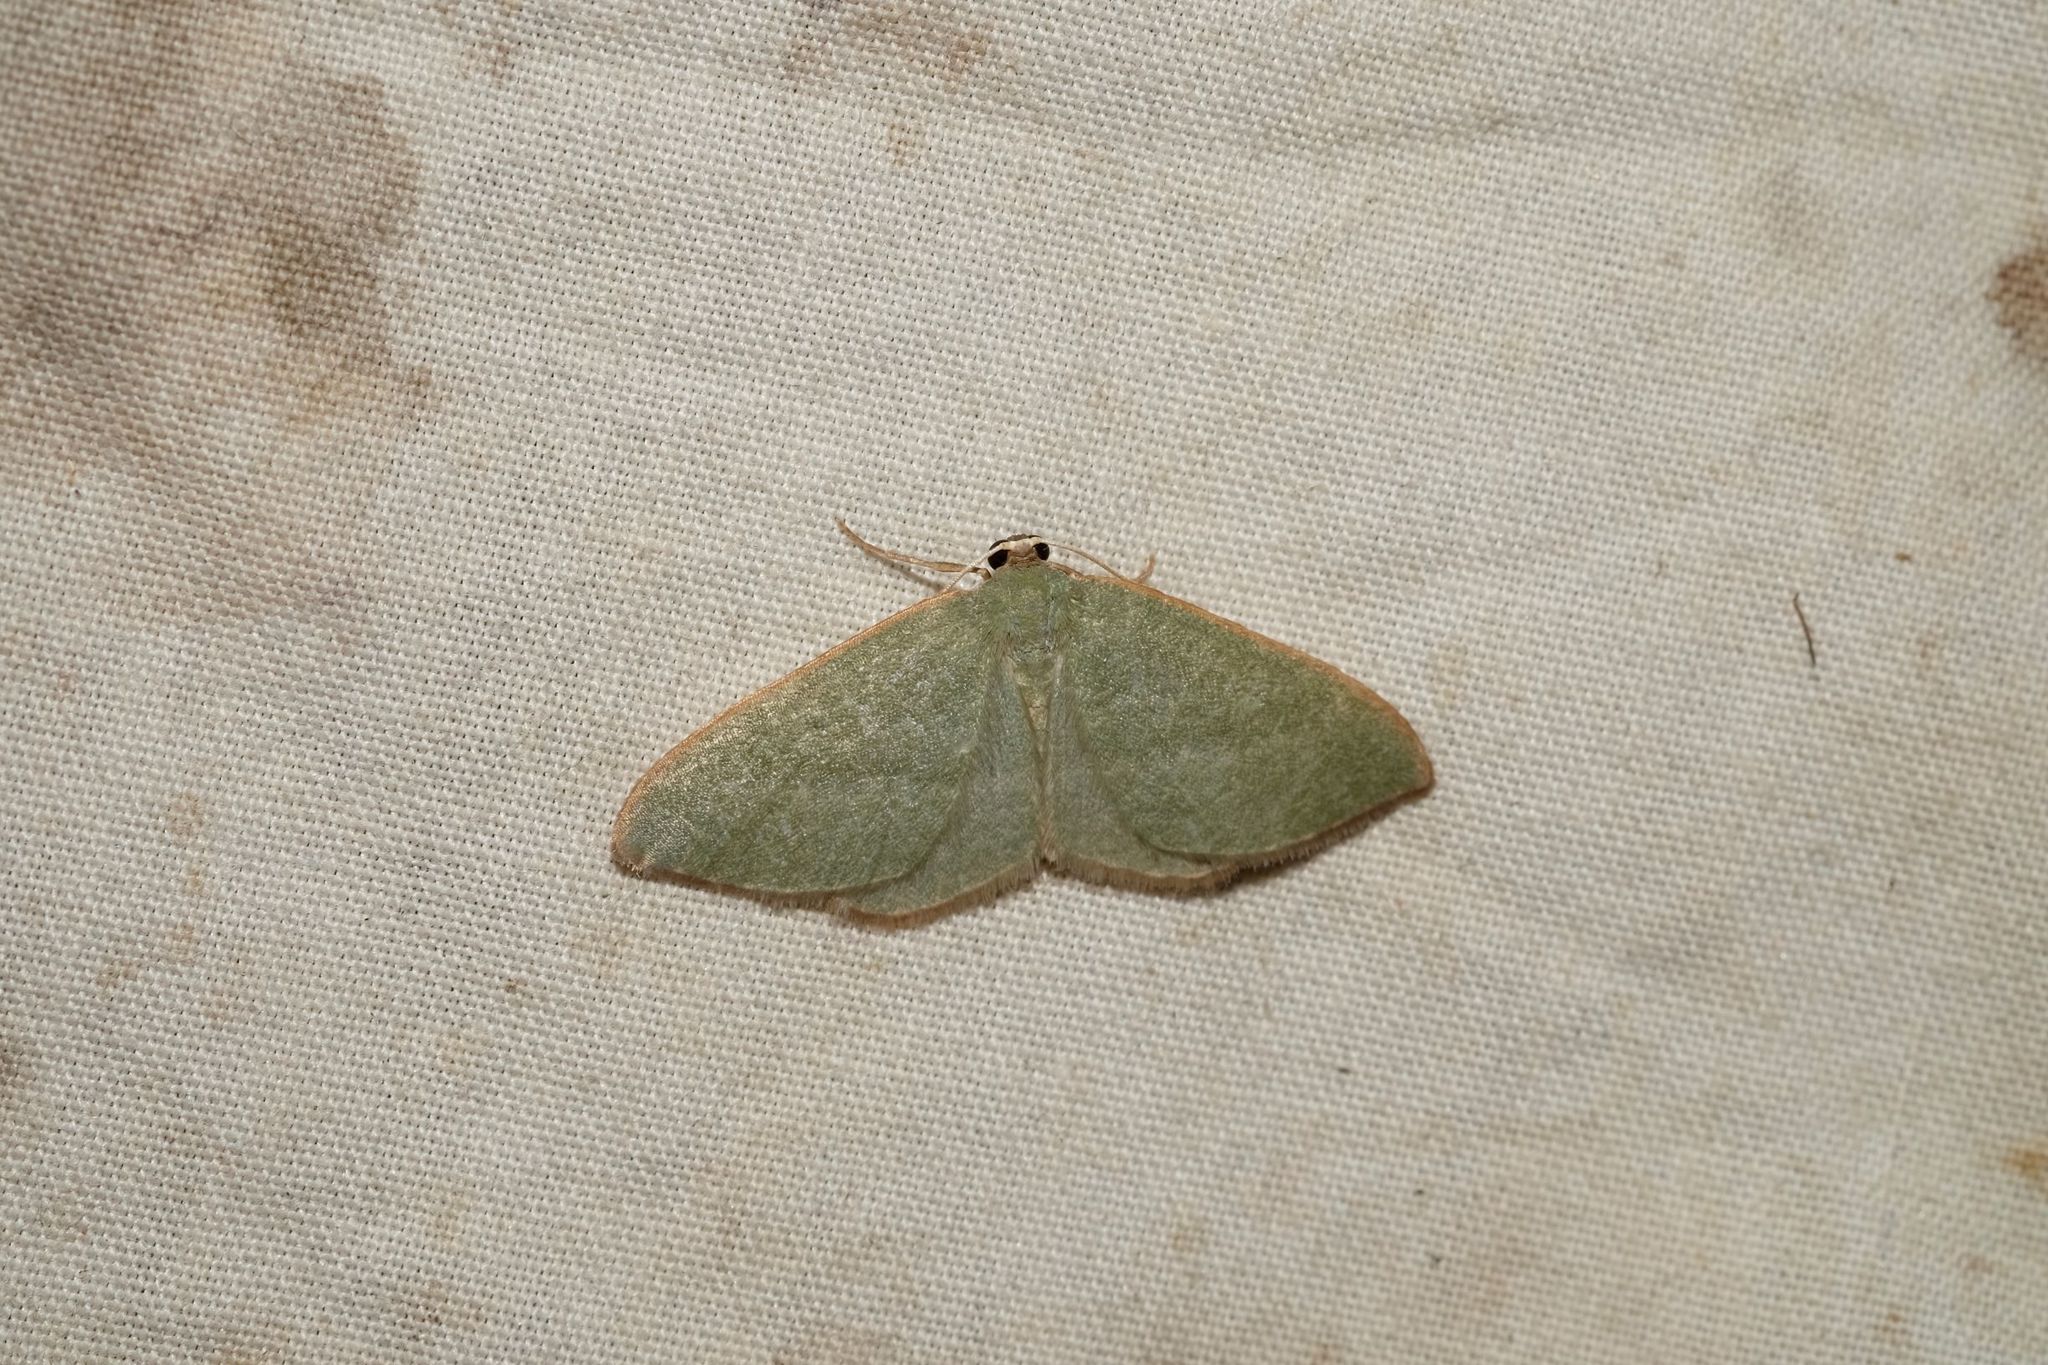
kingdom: Animalia
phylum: Arthropoda
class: Insecta
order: Lepidoptera
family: Geometridae
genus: Poecilasthena
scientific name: Poecilasthena euphylla
